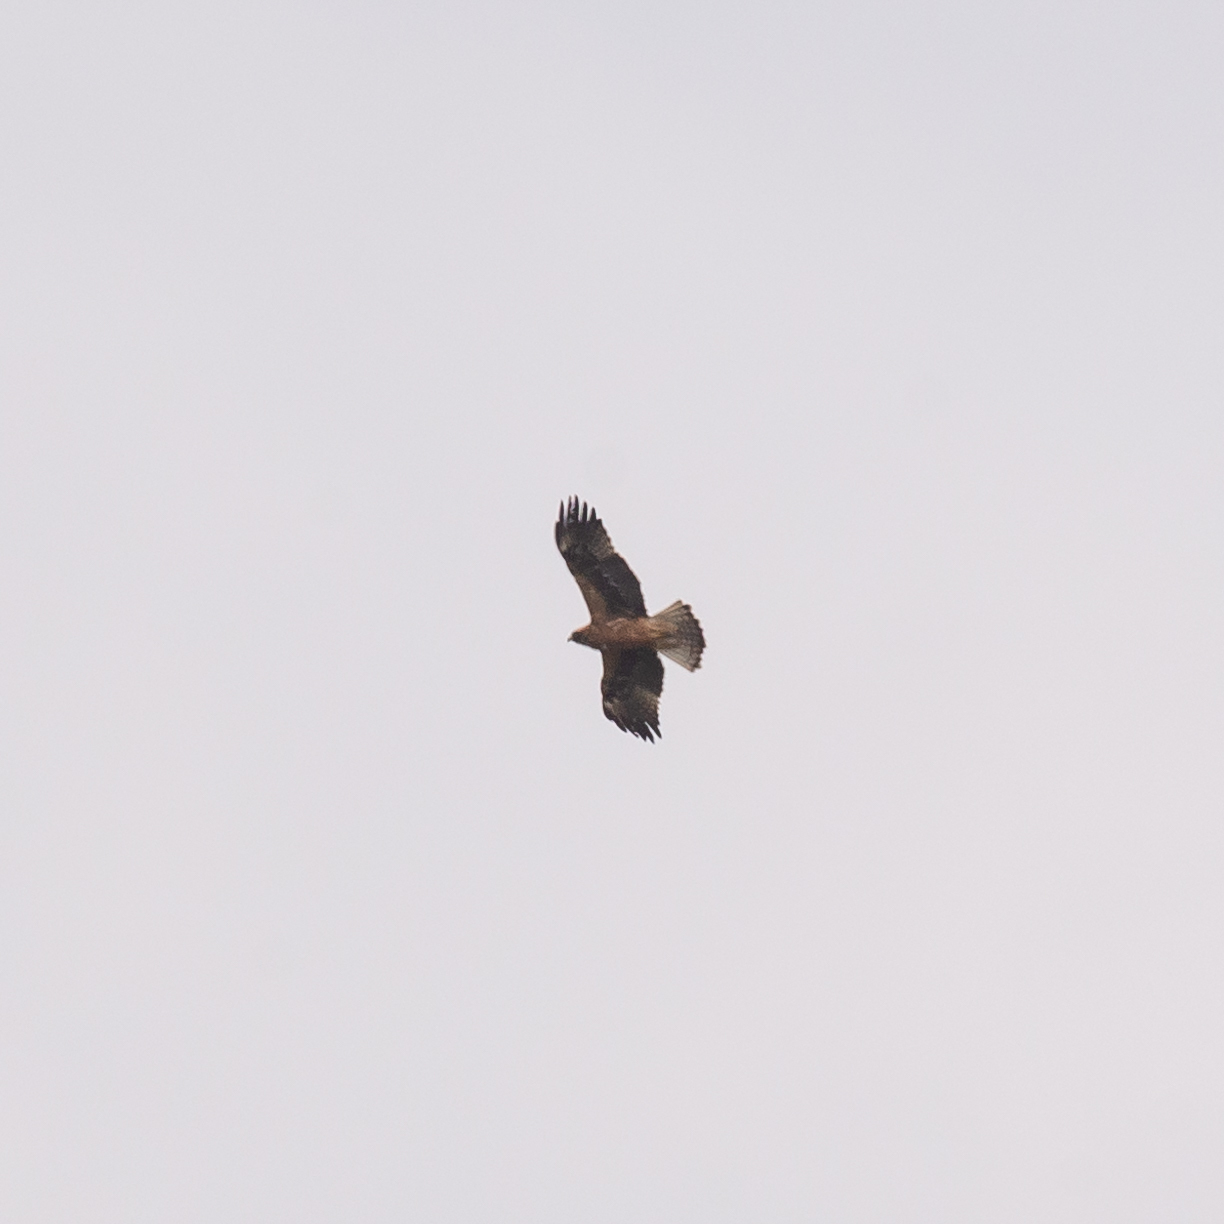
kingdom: Animalia
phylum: Chordata
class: Aves
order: Accipitriformes
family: Accipitridae
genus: Hieraaetus
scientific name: Hieraaetus pennatus
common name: Booted eagle
